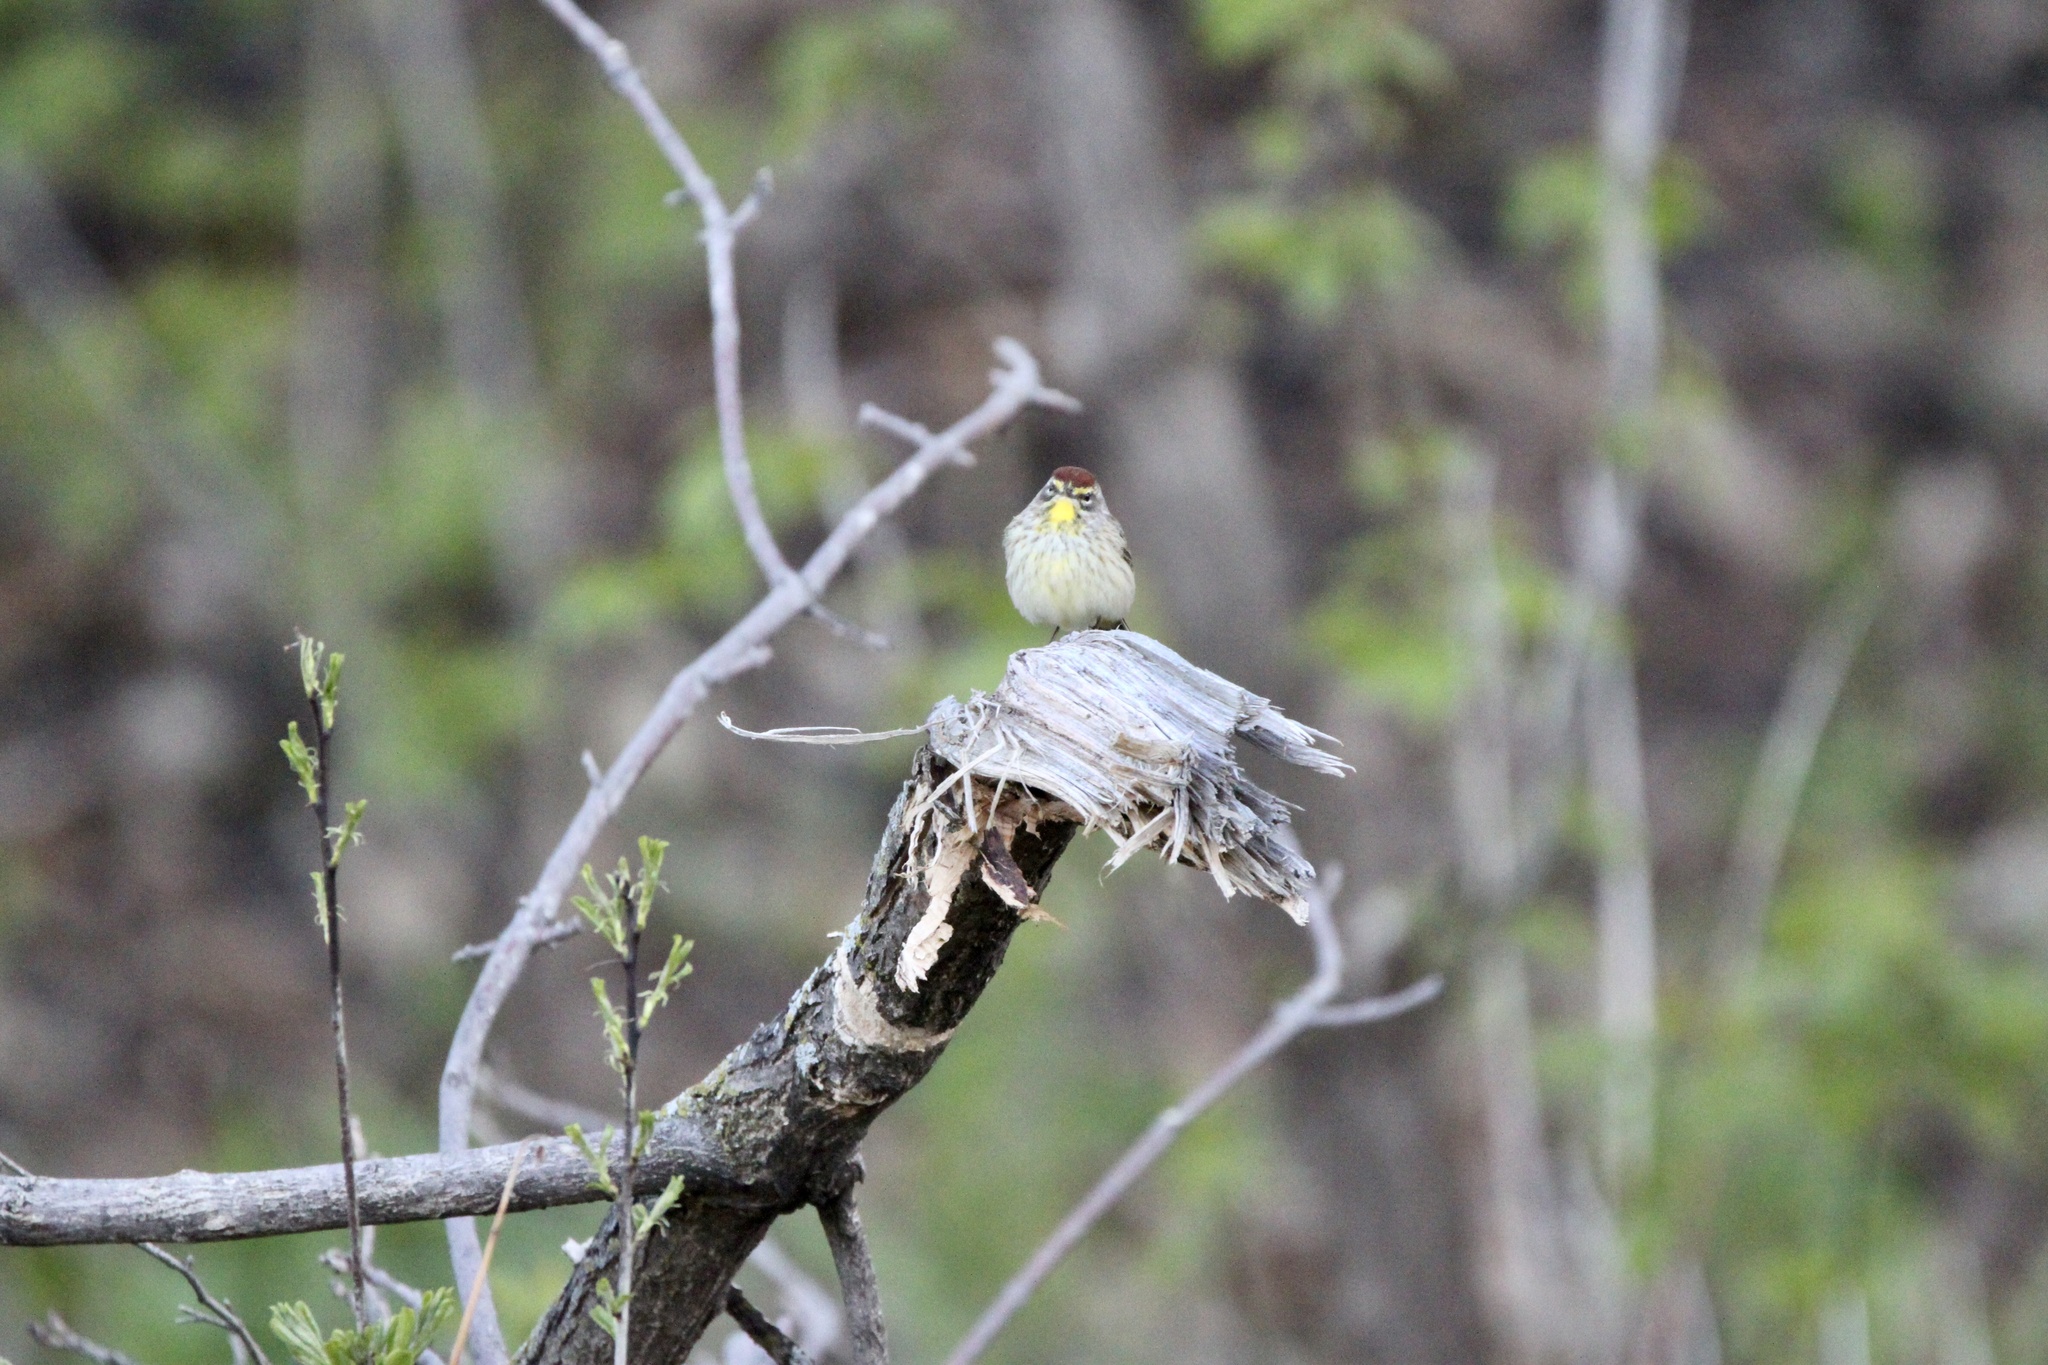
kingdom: Animalia
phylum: Chordata
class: Aves
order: Passeriformes
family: Parulidae
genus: Setophaga
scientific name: Setophaga palmarum
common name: Palm warbler
